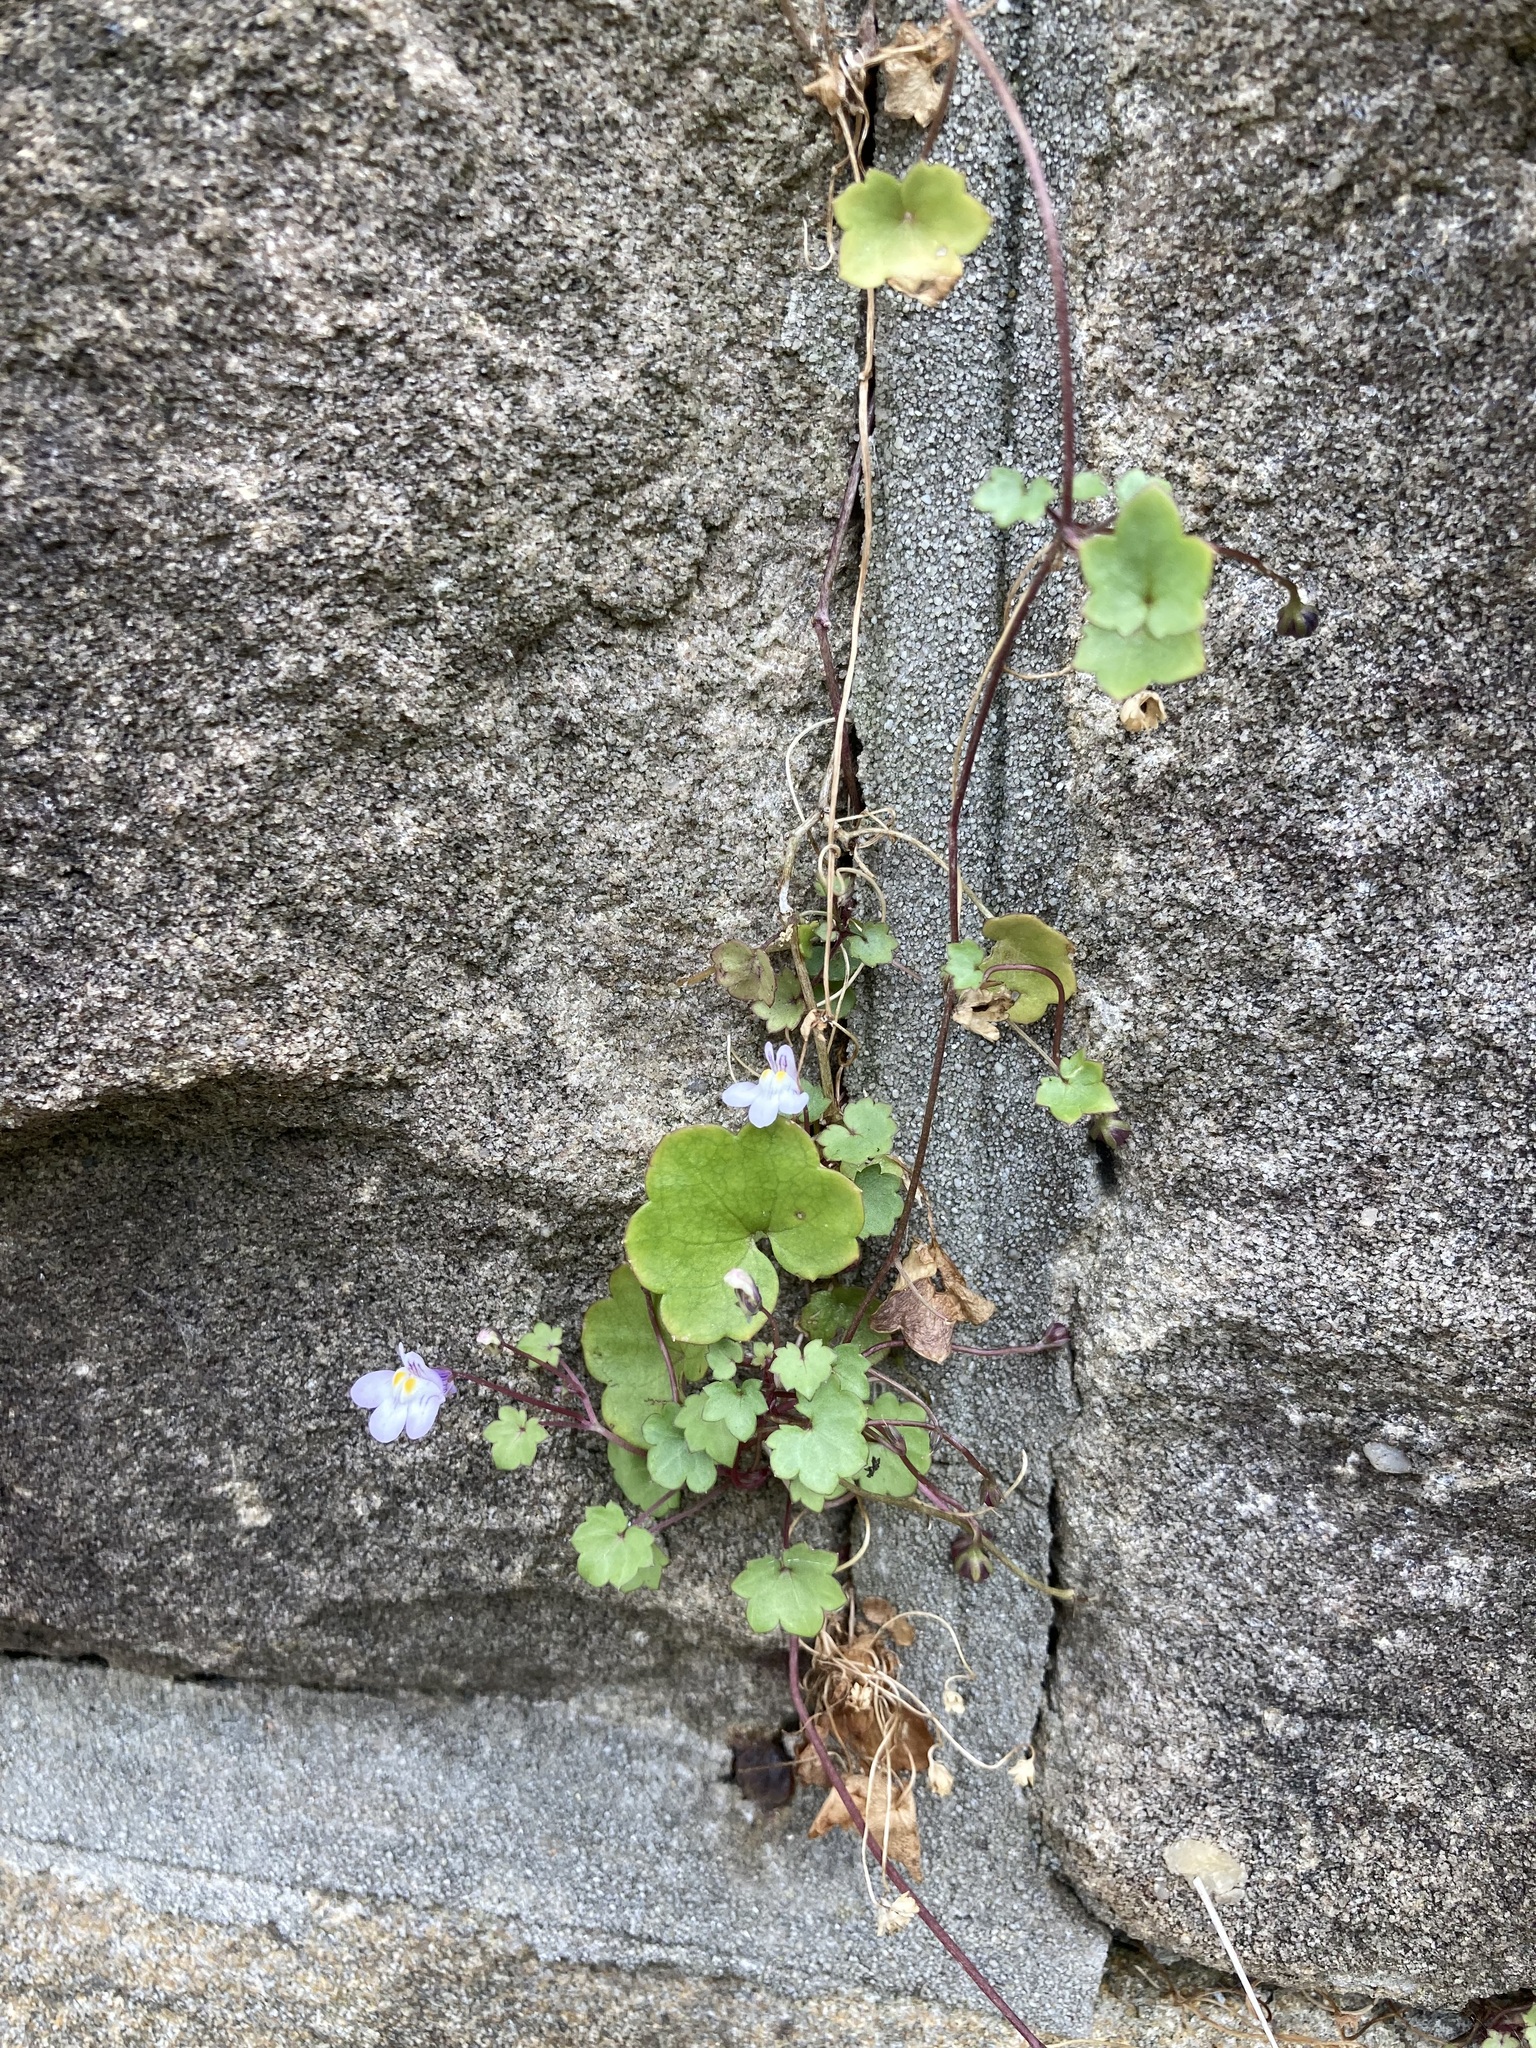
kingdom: Plantae
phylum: Tracheophyta
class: Magnoliopsida
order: Lamiales
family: Plantaginaceae
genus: Cymbalaria
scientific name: Cymbalaria muralis
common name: Ivy-leaved toadflax
